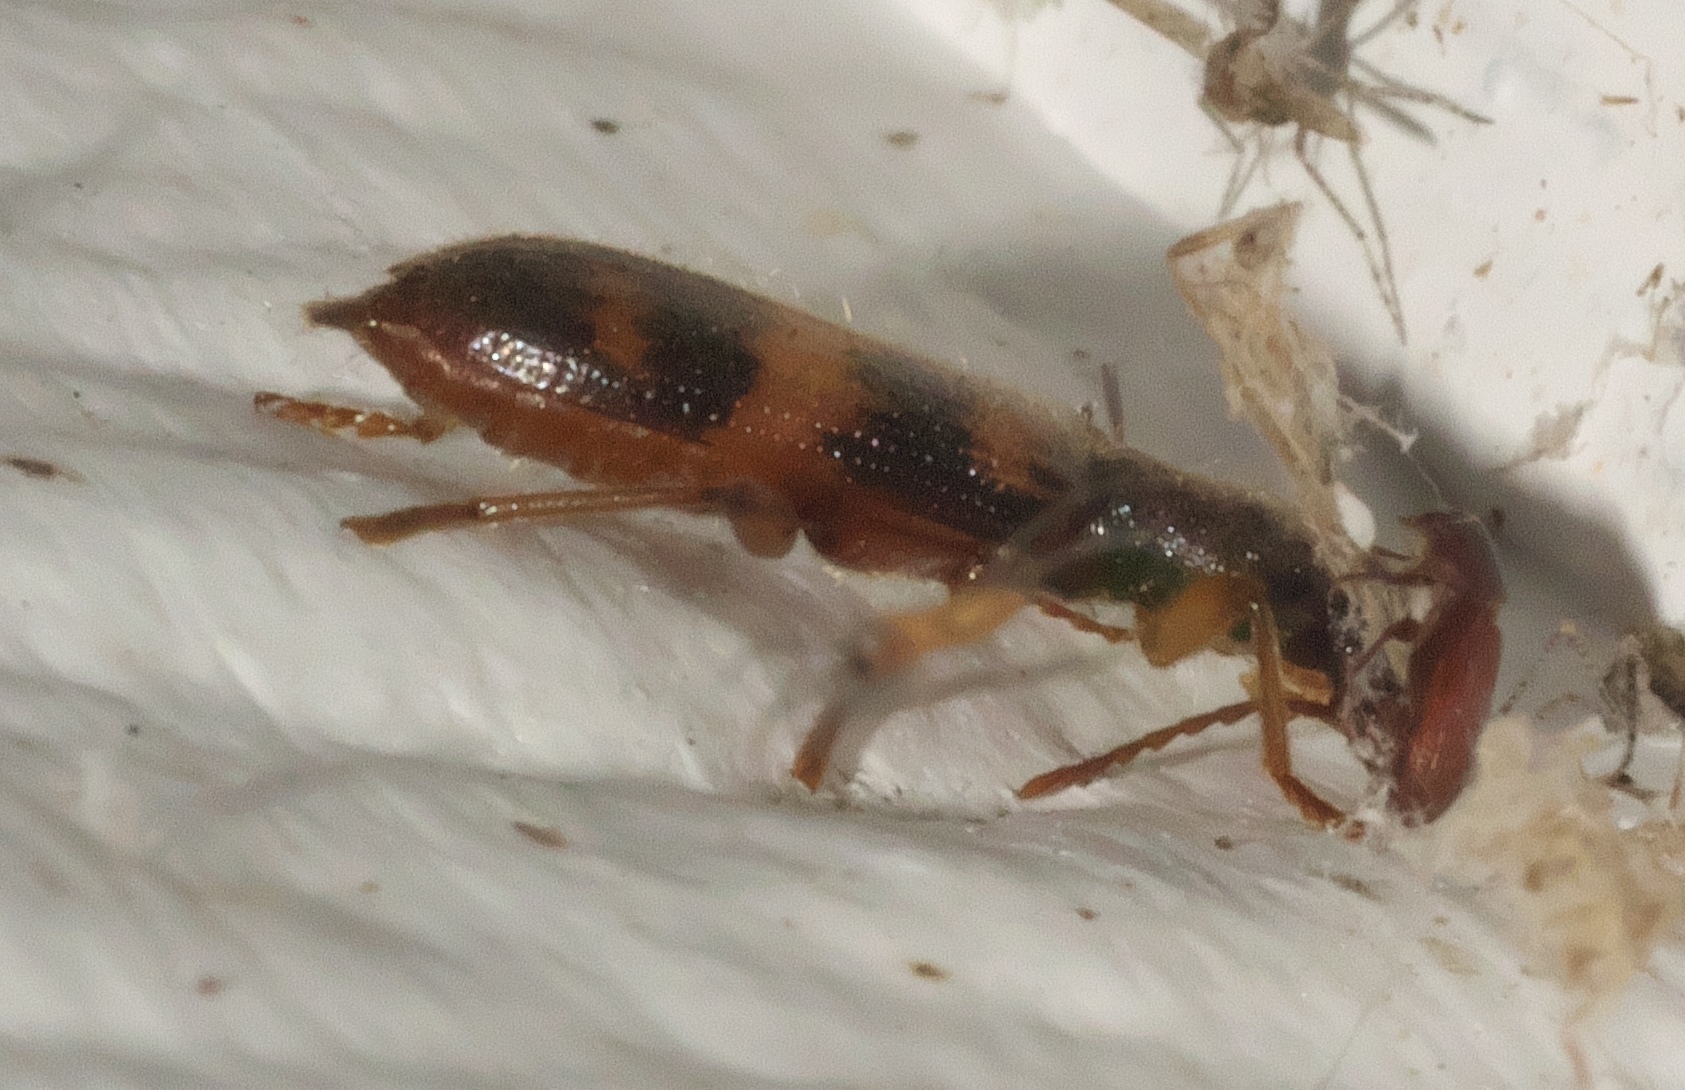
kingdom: Animalia
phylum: Arthropoda
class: Insecta
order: Coleoptera
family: Cleridae
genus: Cymatodera
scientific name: Cymatodera undulata
